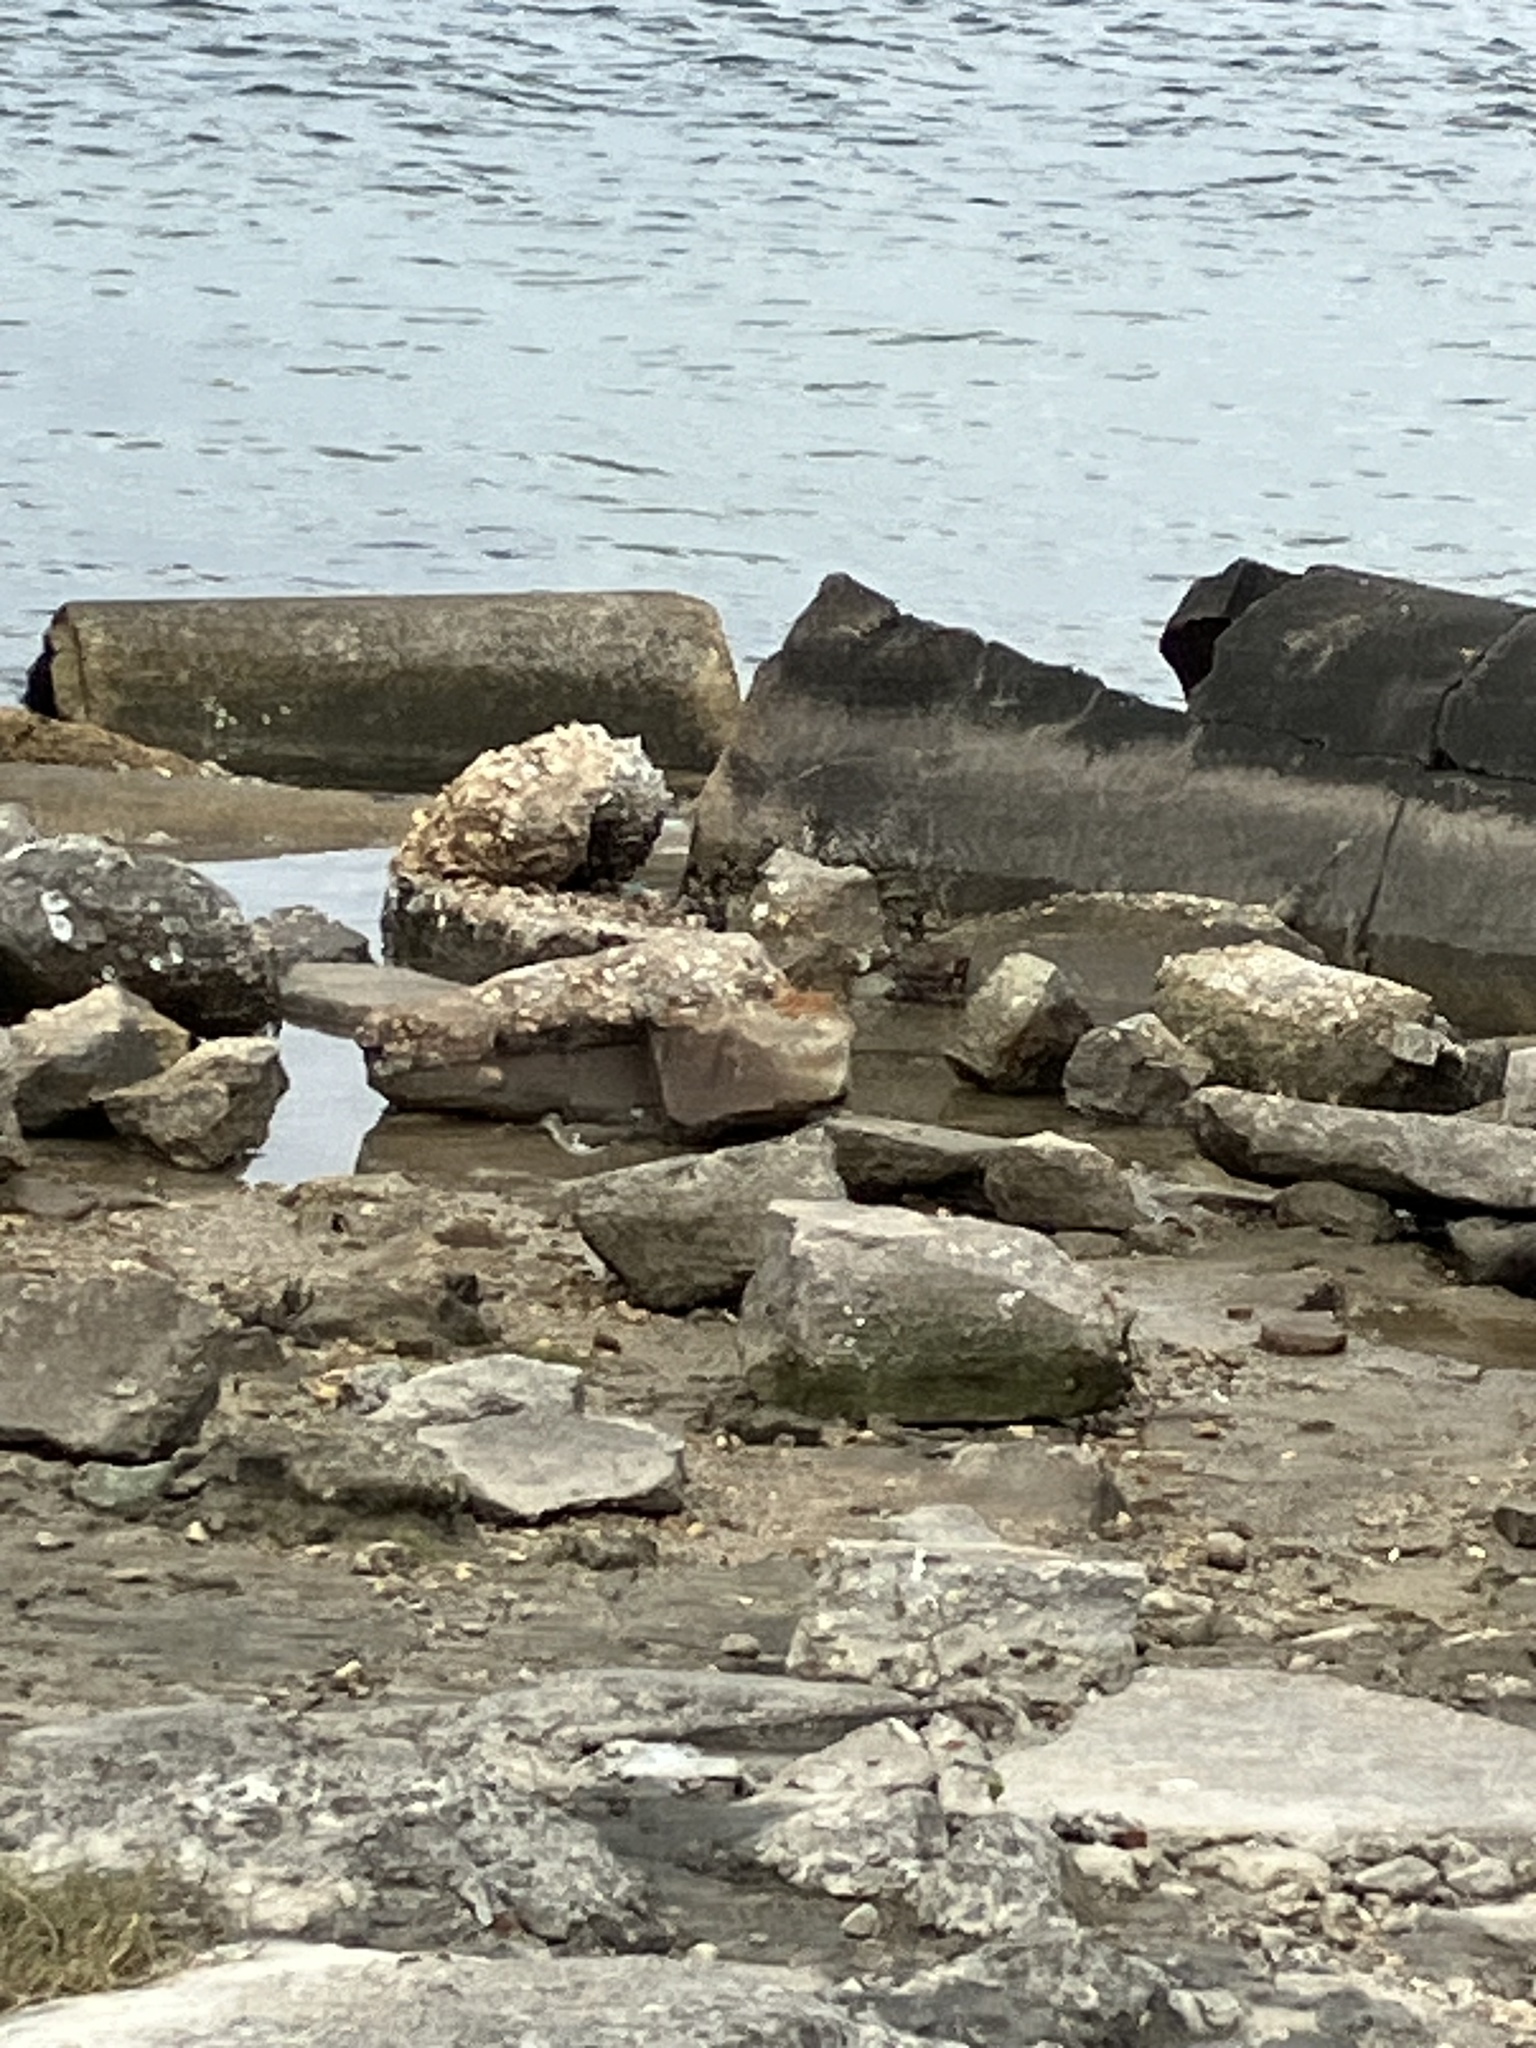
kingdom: Animalia
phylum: Chordata
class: Aves
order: Charadriiformes
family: Scolopacidae
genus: Actitis
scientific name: Actitis macularius
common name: Spotted sandpiper
